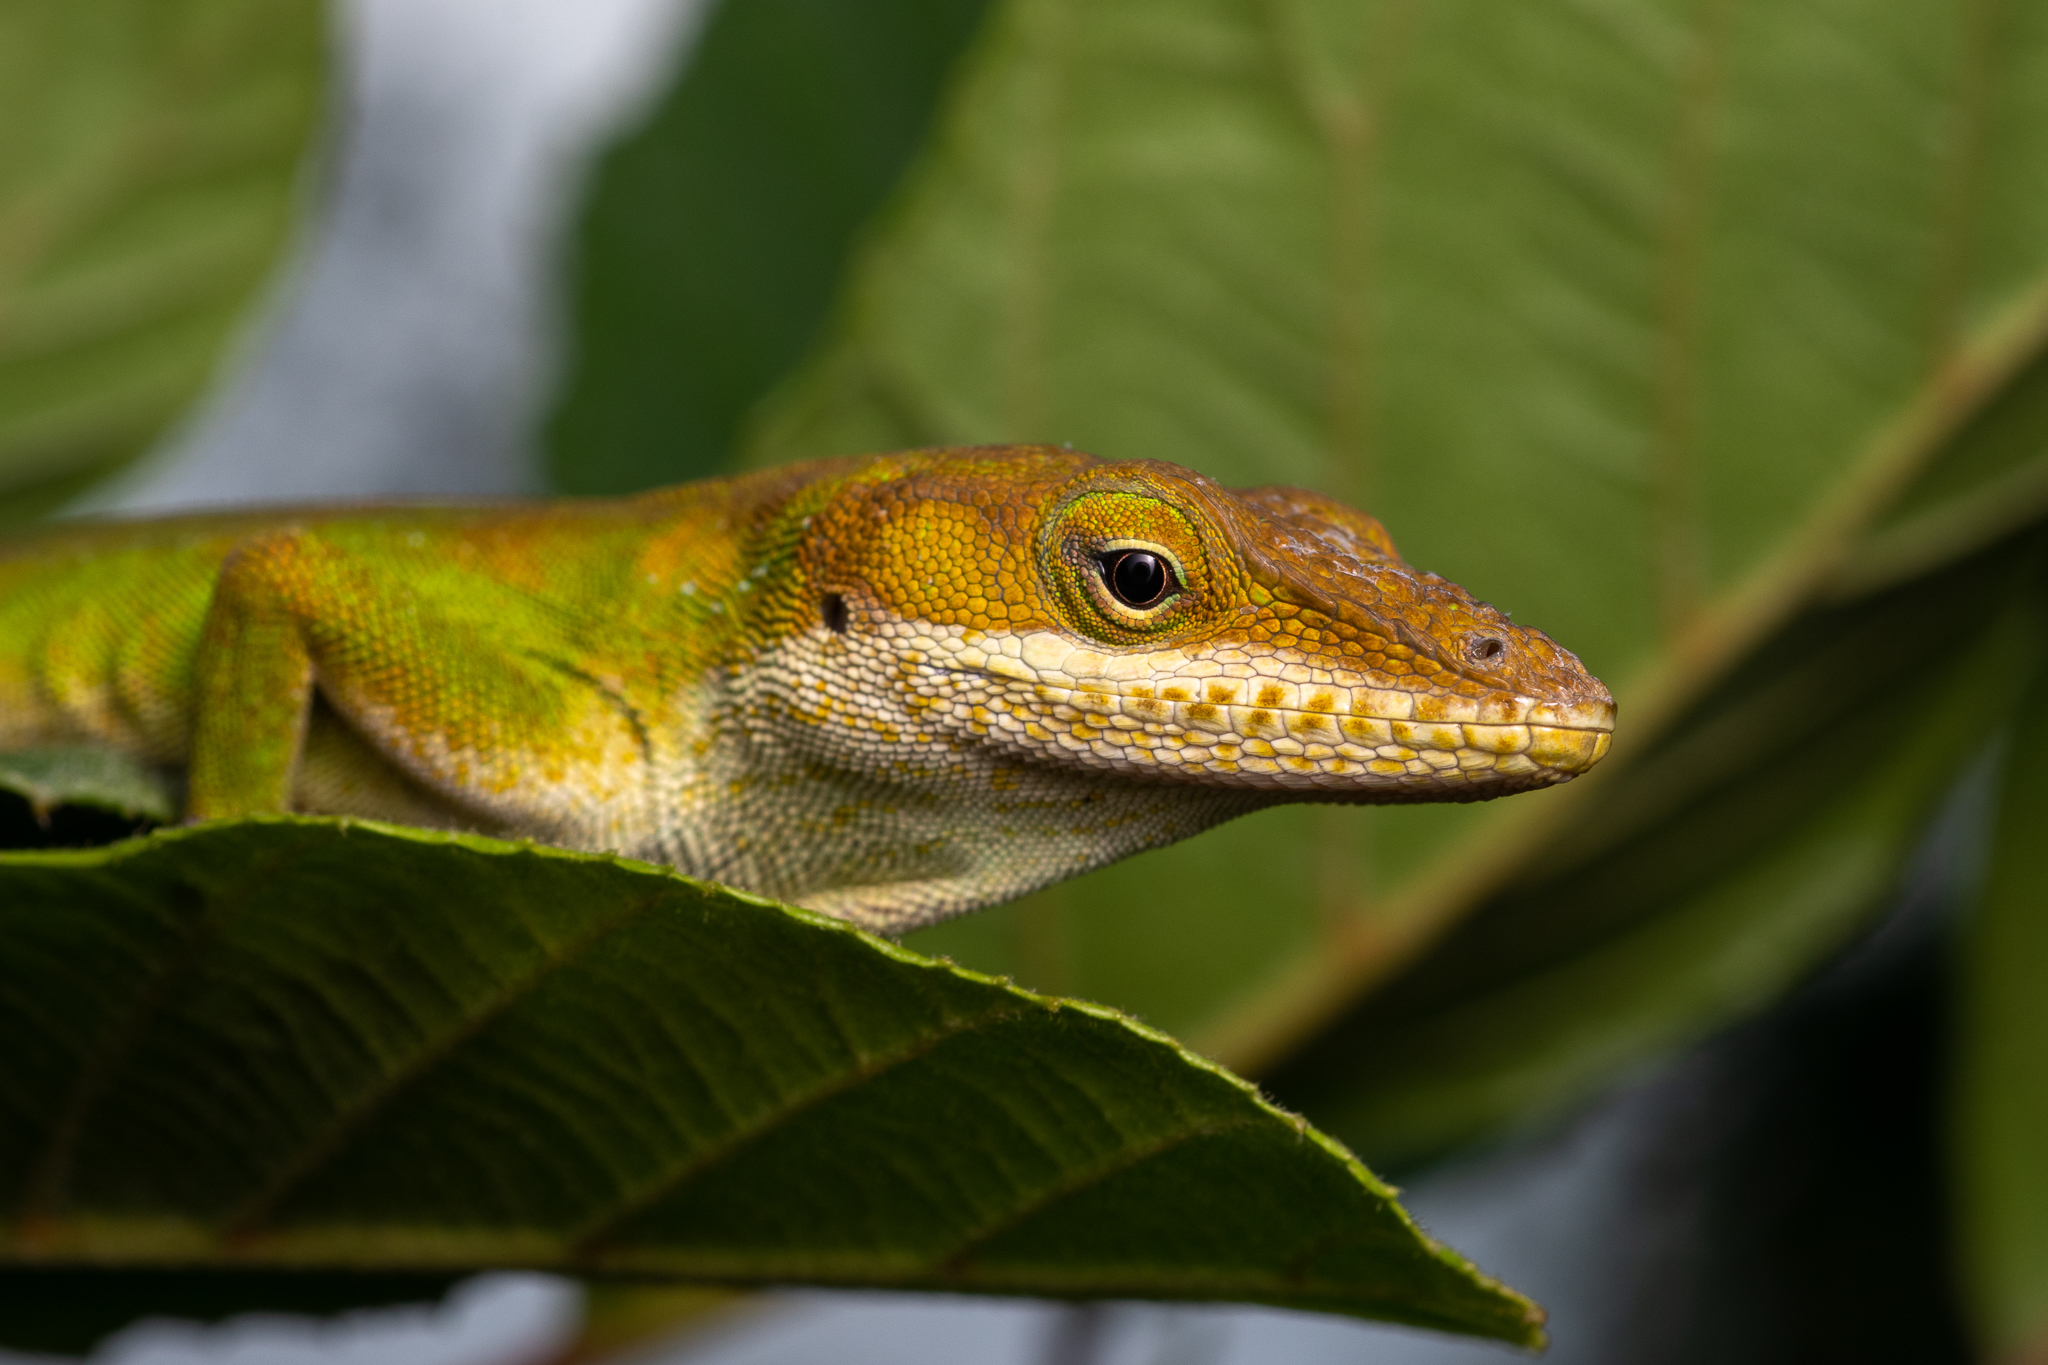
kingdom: Animalia
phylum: Chordata
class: Squamata
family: Dactyloidae
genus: Anolis
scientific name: Anolis carolinensis
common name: Green anole
